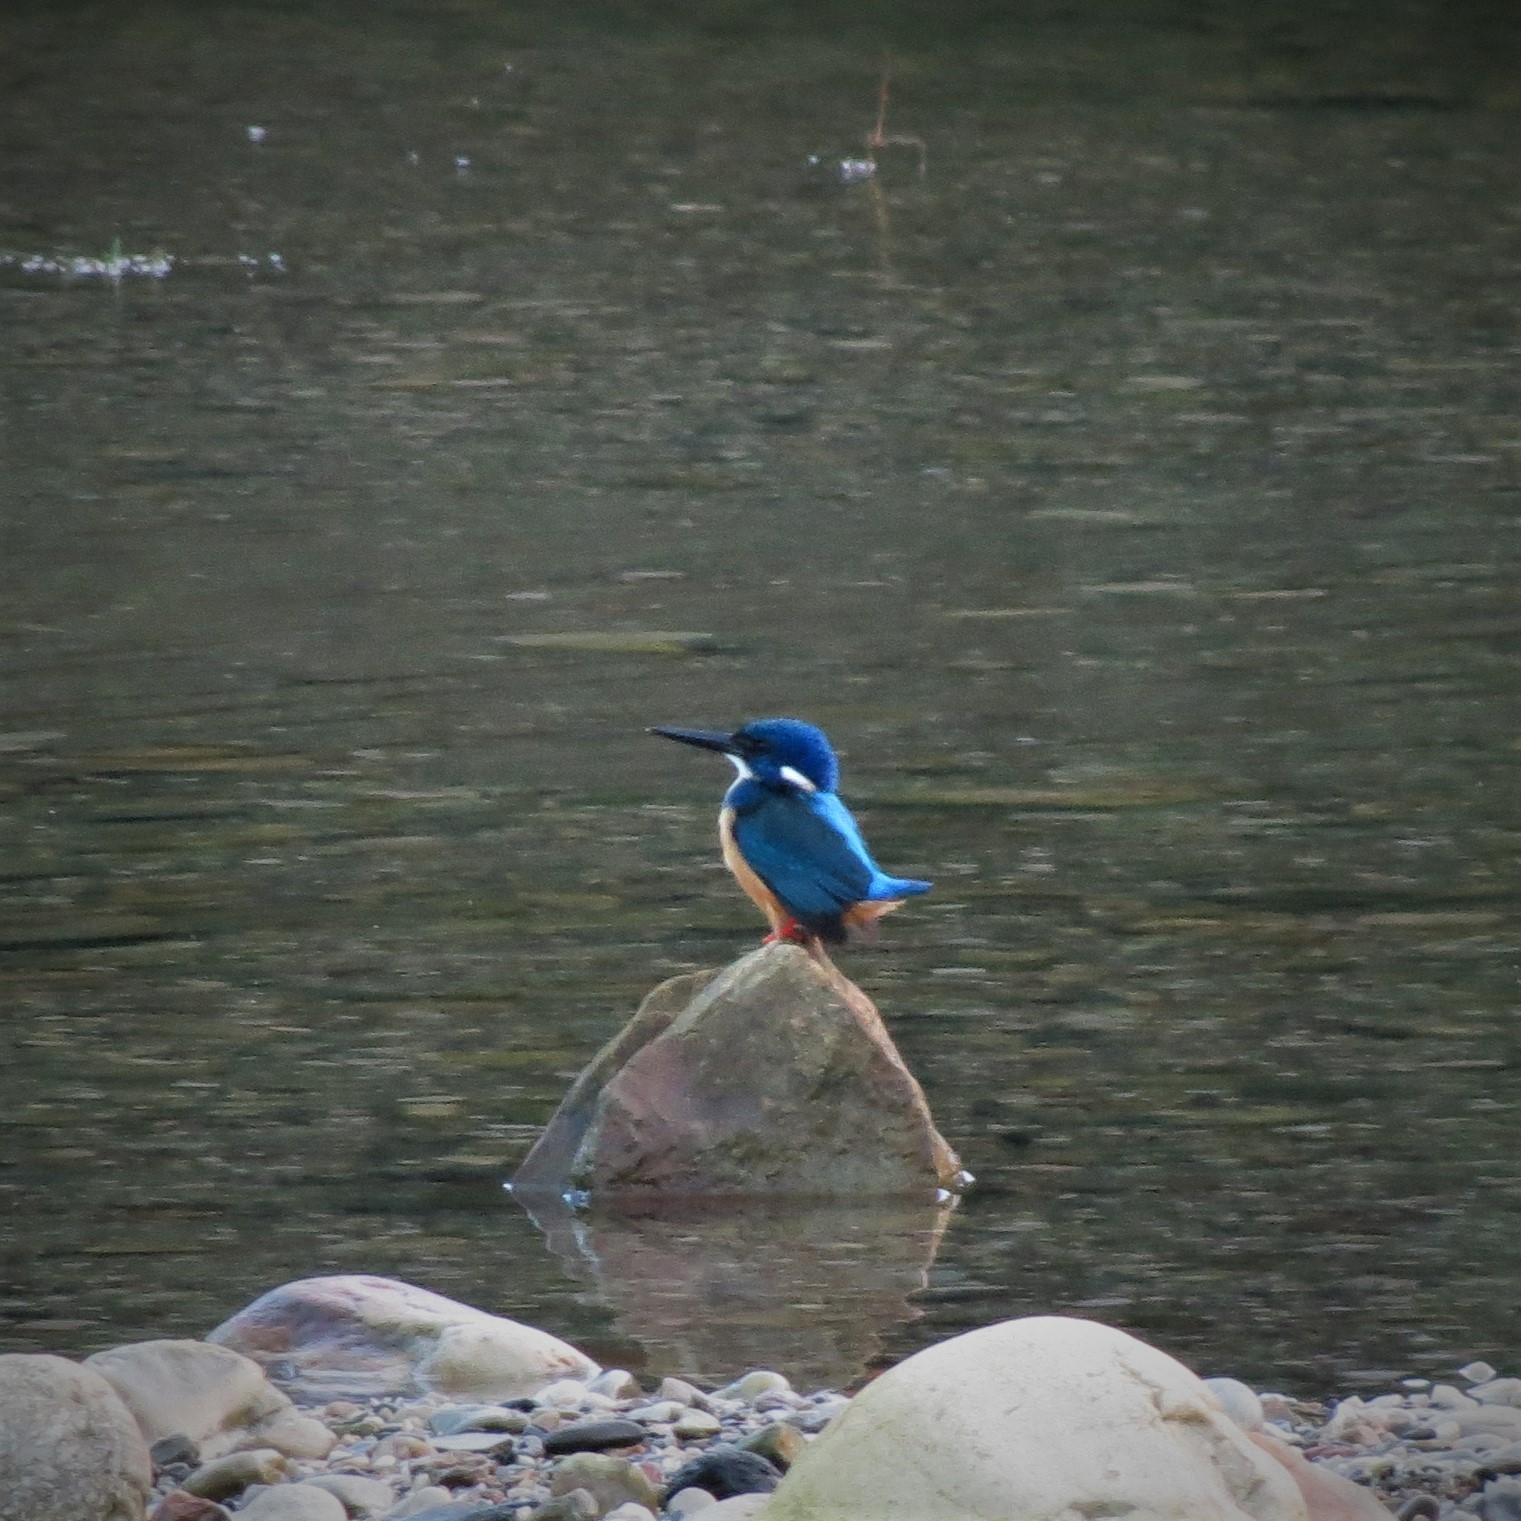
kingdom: Animalia
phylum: Chordata
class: Aves
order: Coraciiformes
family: Alcedinidae
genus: Alcedo
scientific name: Alcedo semitorquata
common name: Half-collared kingfisher
